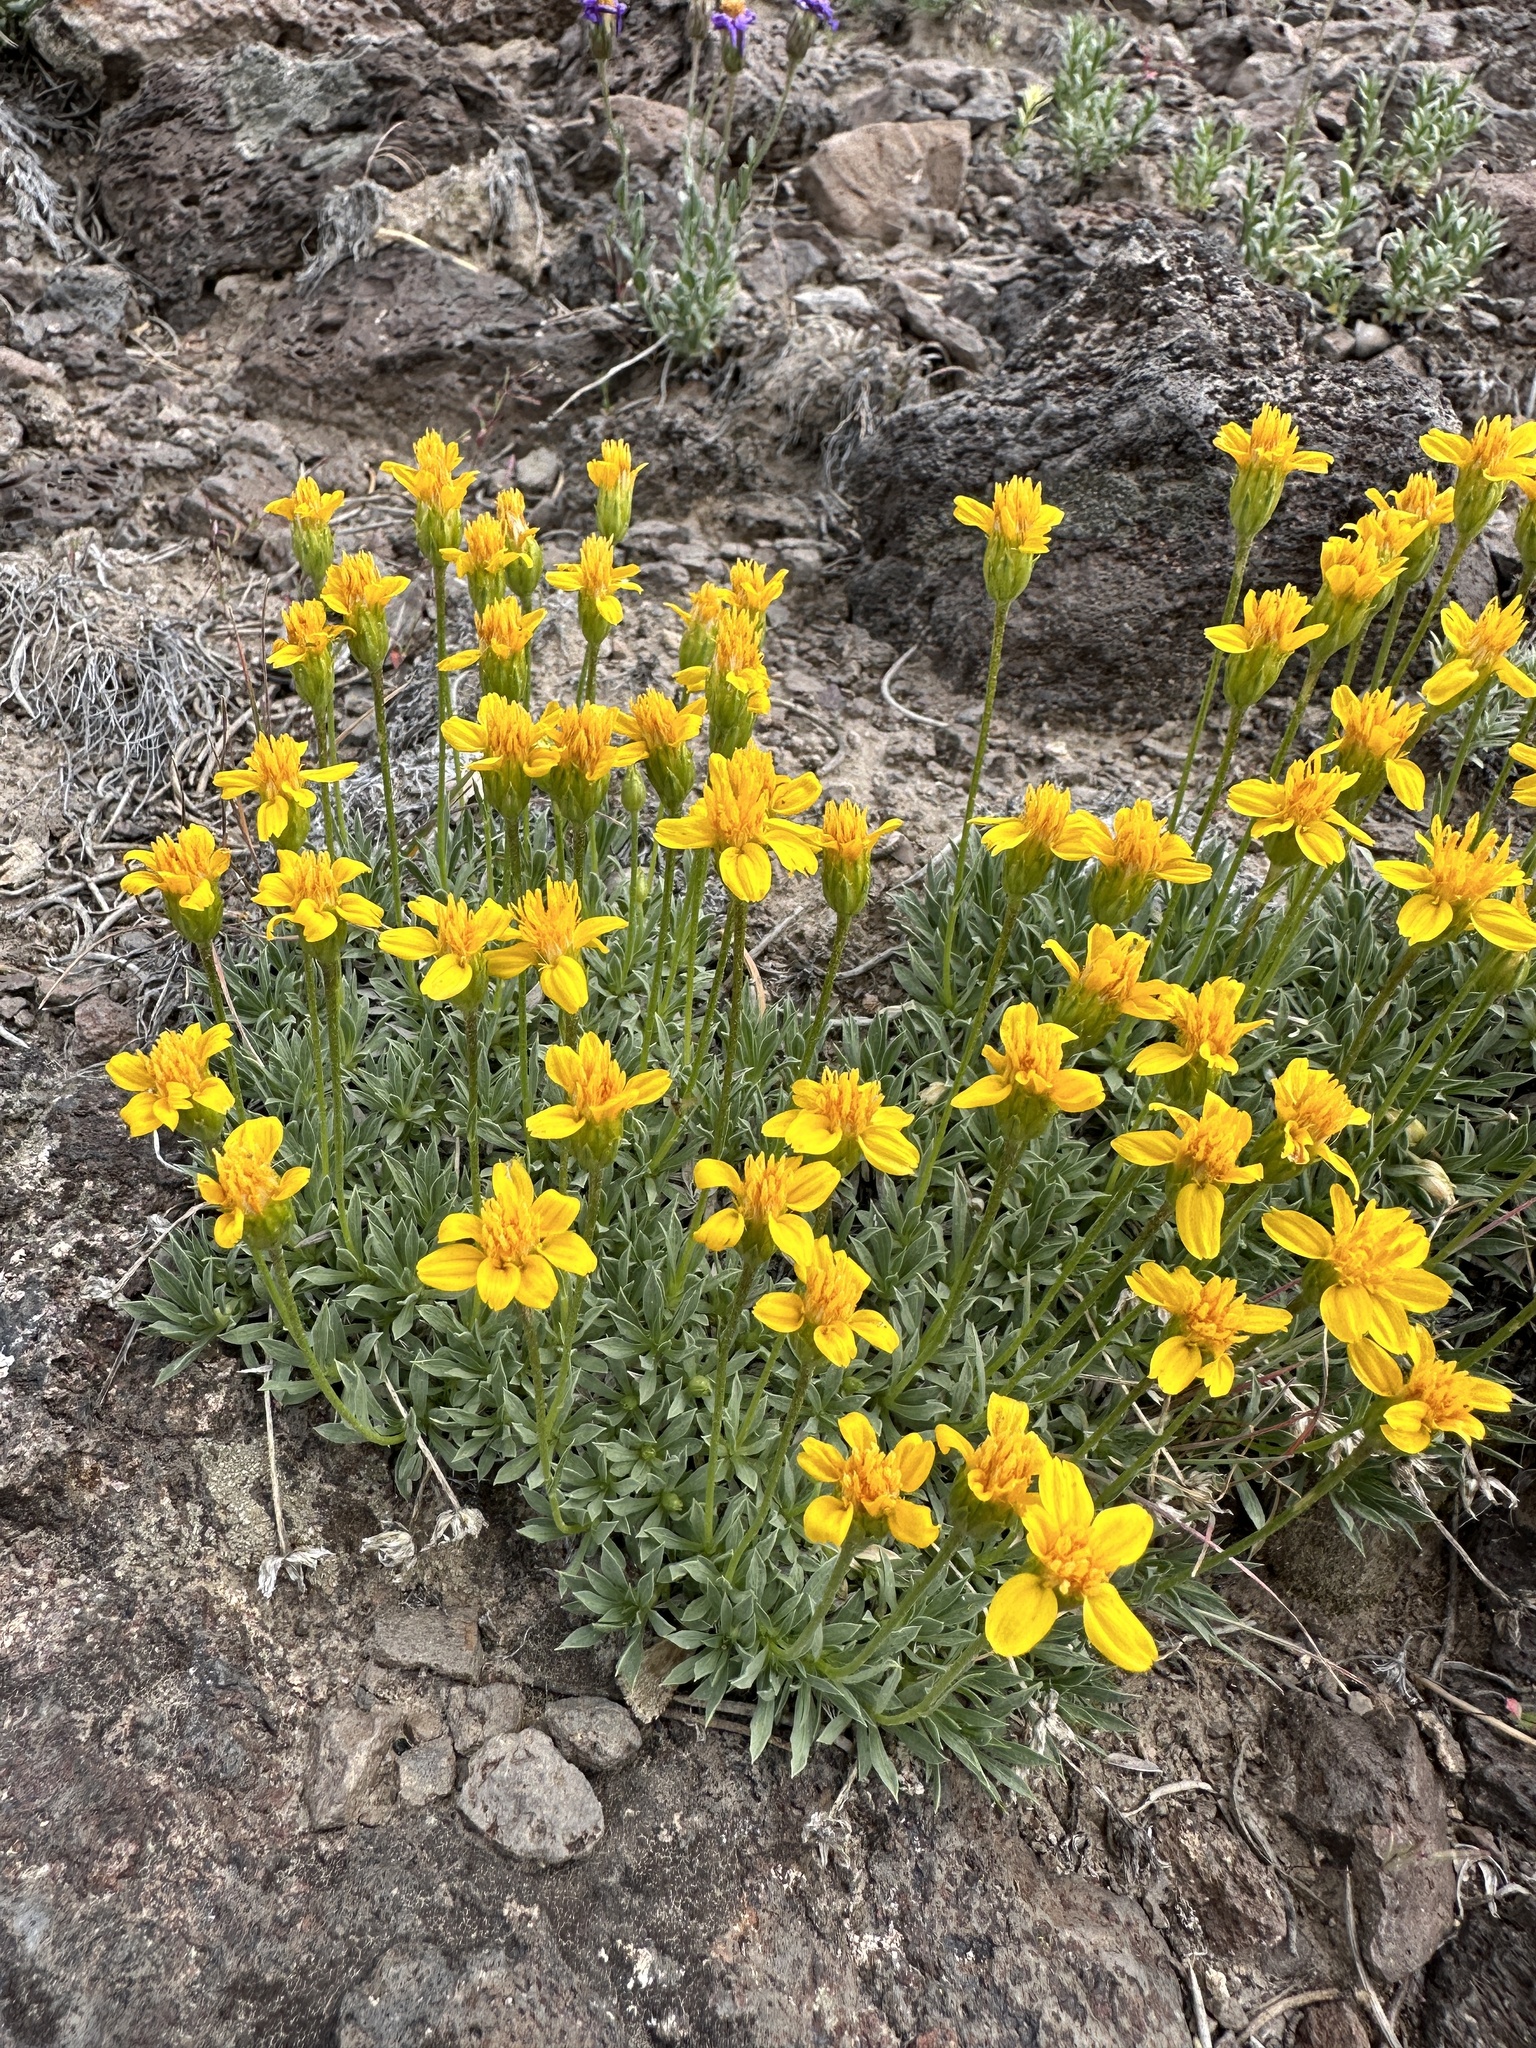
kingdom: Plantae
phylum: Tracheophyta
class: Magnoliopsida
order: Asterales
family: Asteraceae
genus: Stenotus
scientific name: Stenotus acaulis
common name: Stemless goldenweed
